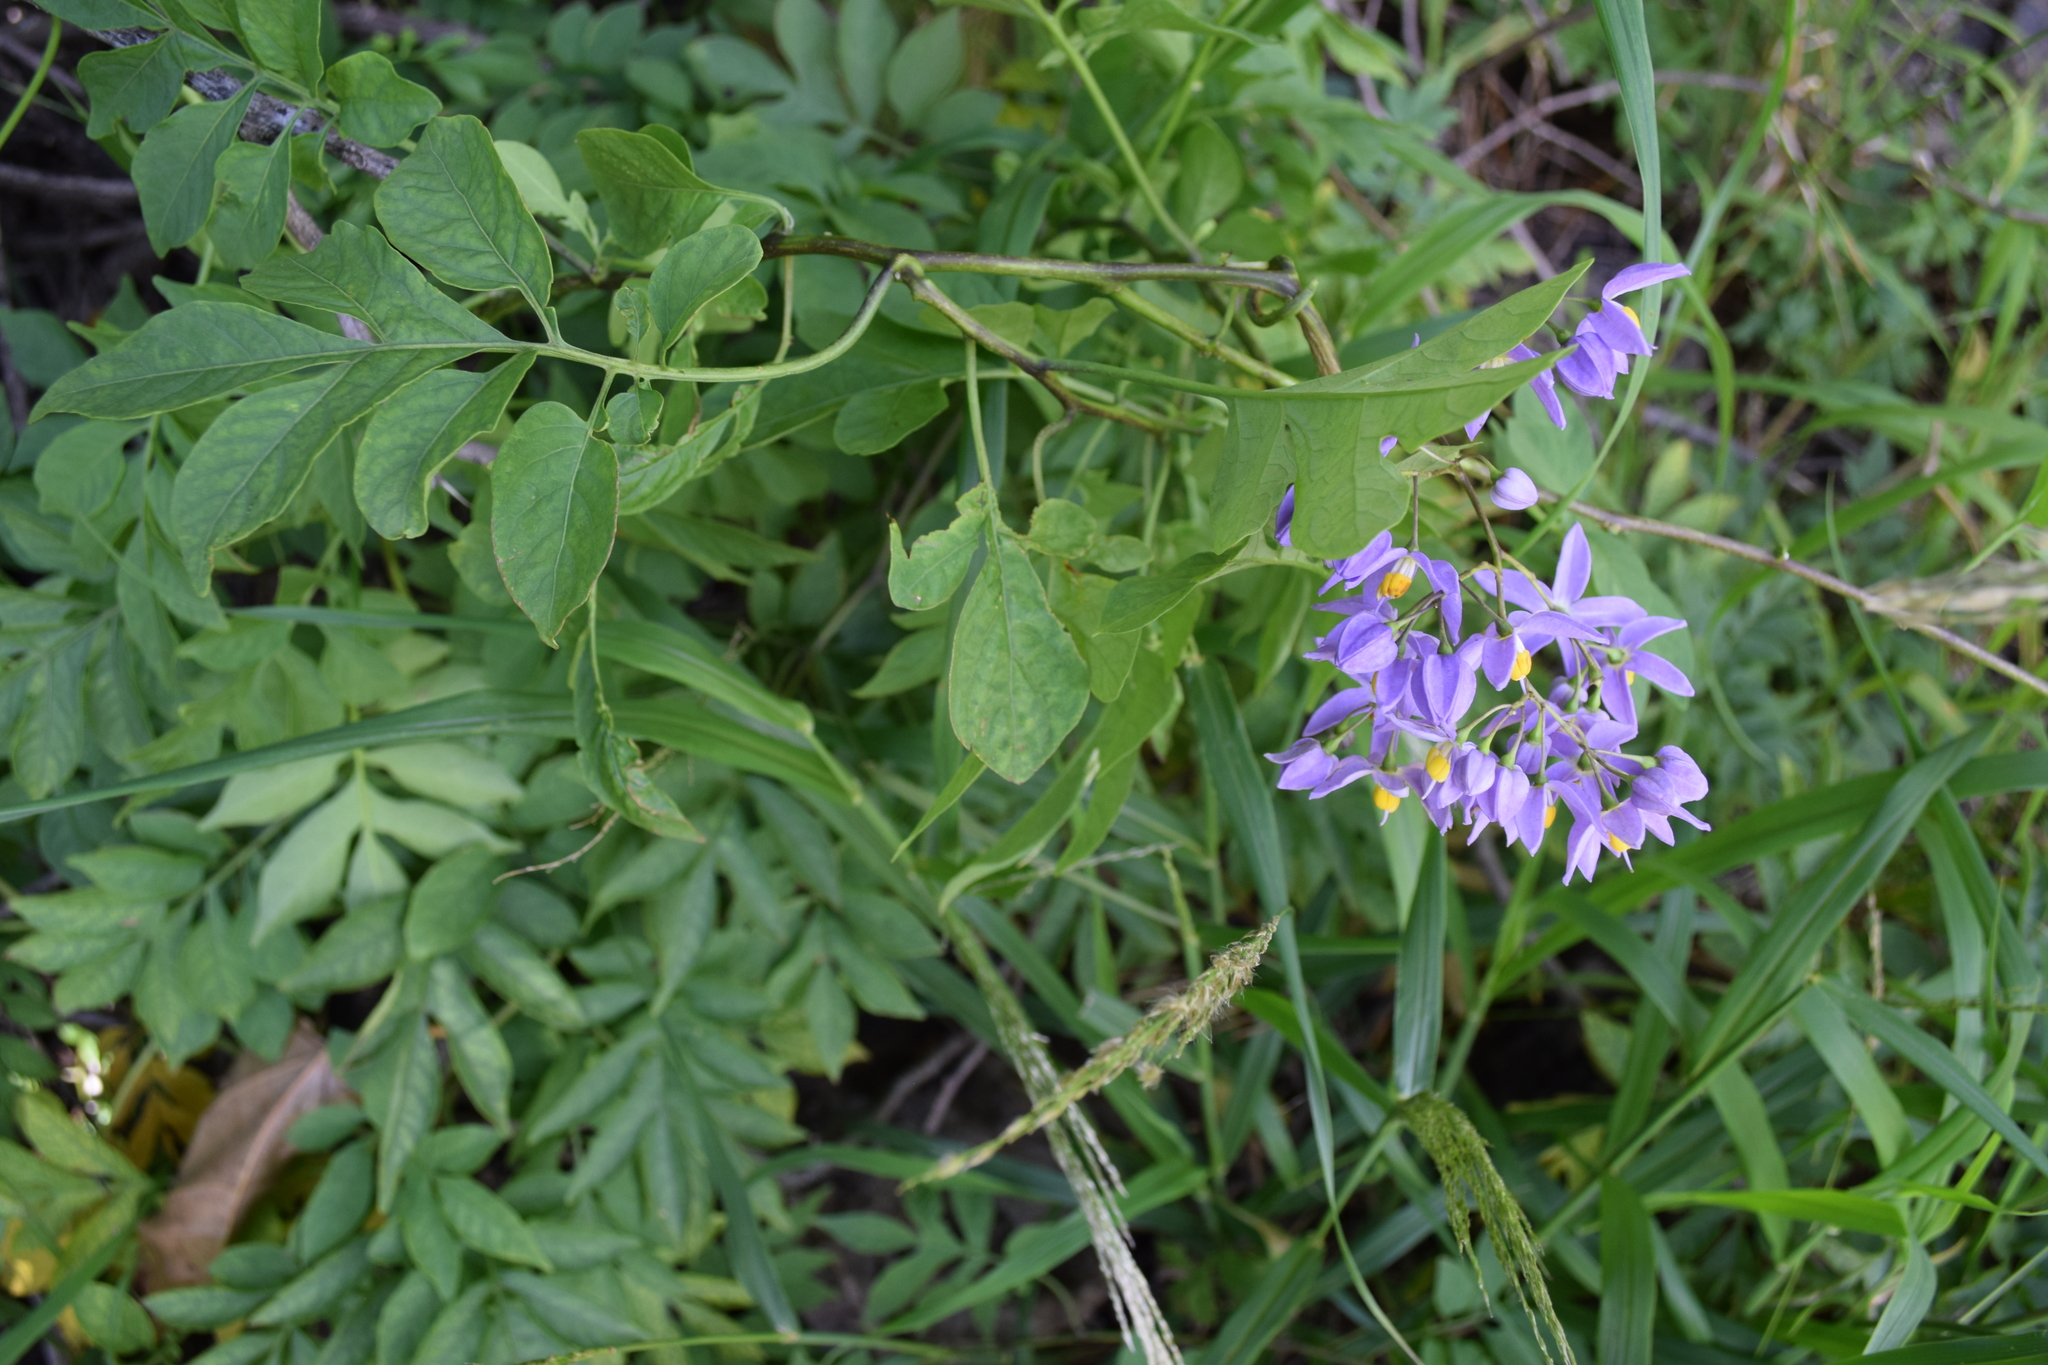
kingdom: Plantae
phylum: Tracheophyta
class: Magnoliopsida
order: Solanales
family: Solanaceae
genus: Solanum
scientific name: Solanum seaforthianum
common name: Brazilian nightshade
